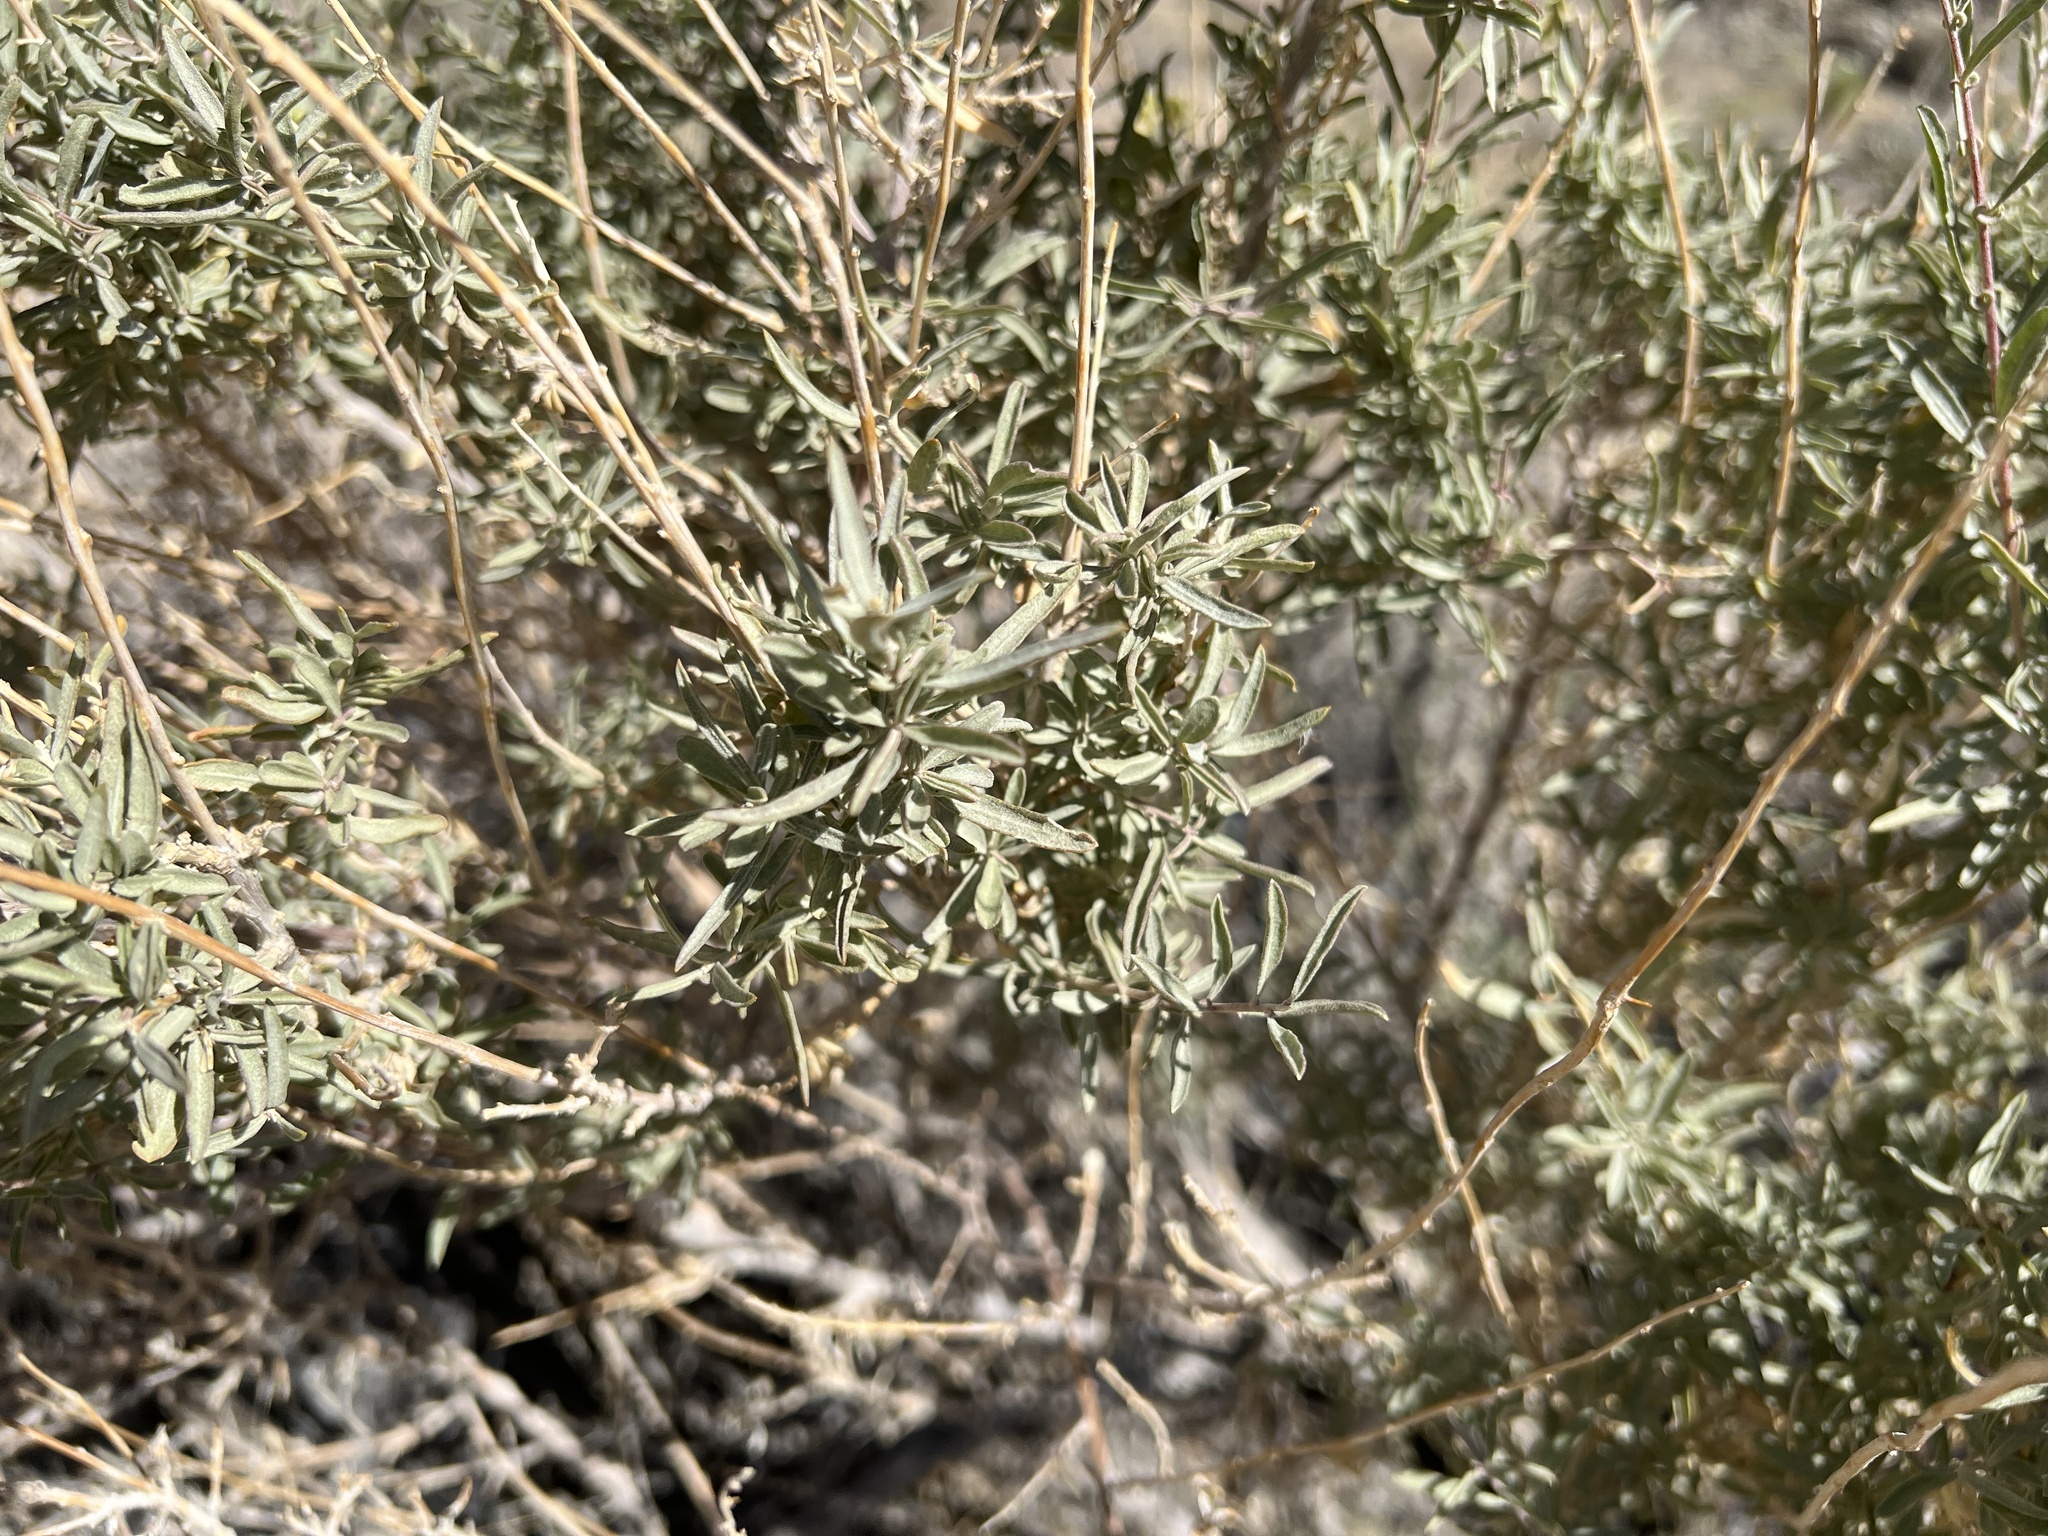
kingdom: Plantae
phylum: Tracheophyta
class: Magnoliopsida
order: Caryophyllales
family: Amaranthaceae
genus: Atriplex
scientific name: Atriplex canescens
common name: Four-wing saltbush
